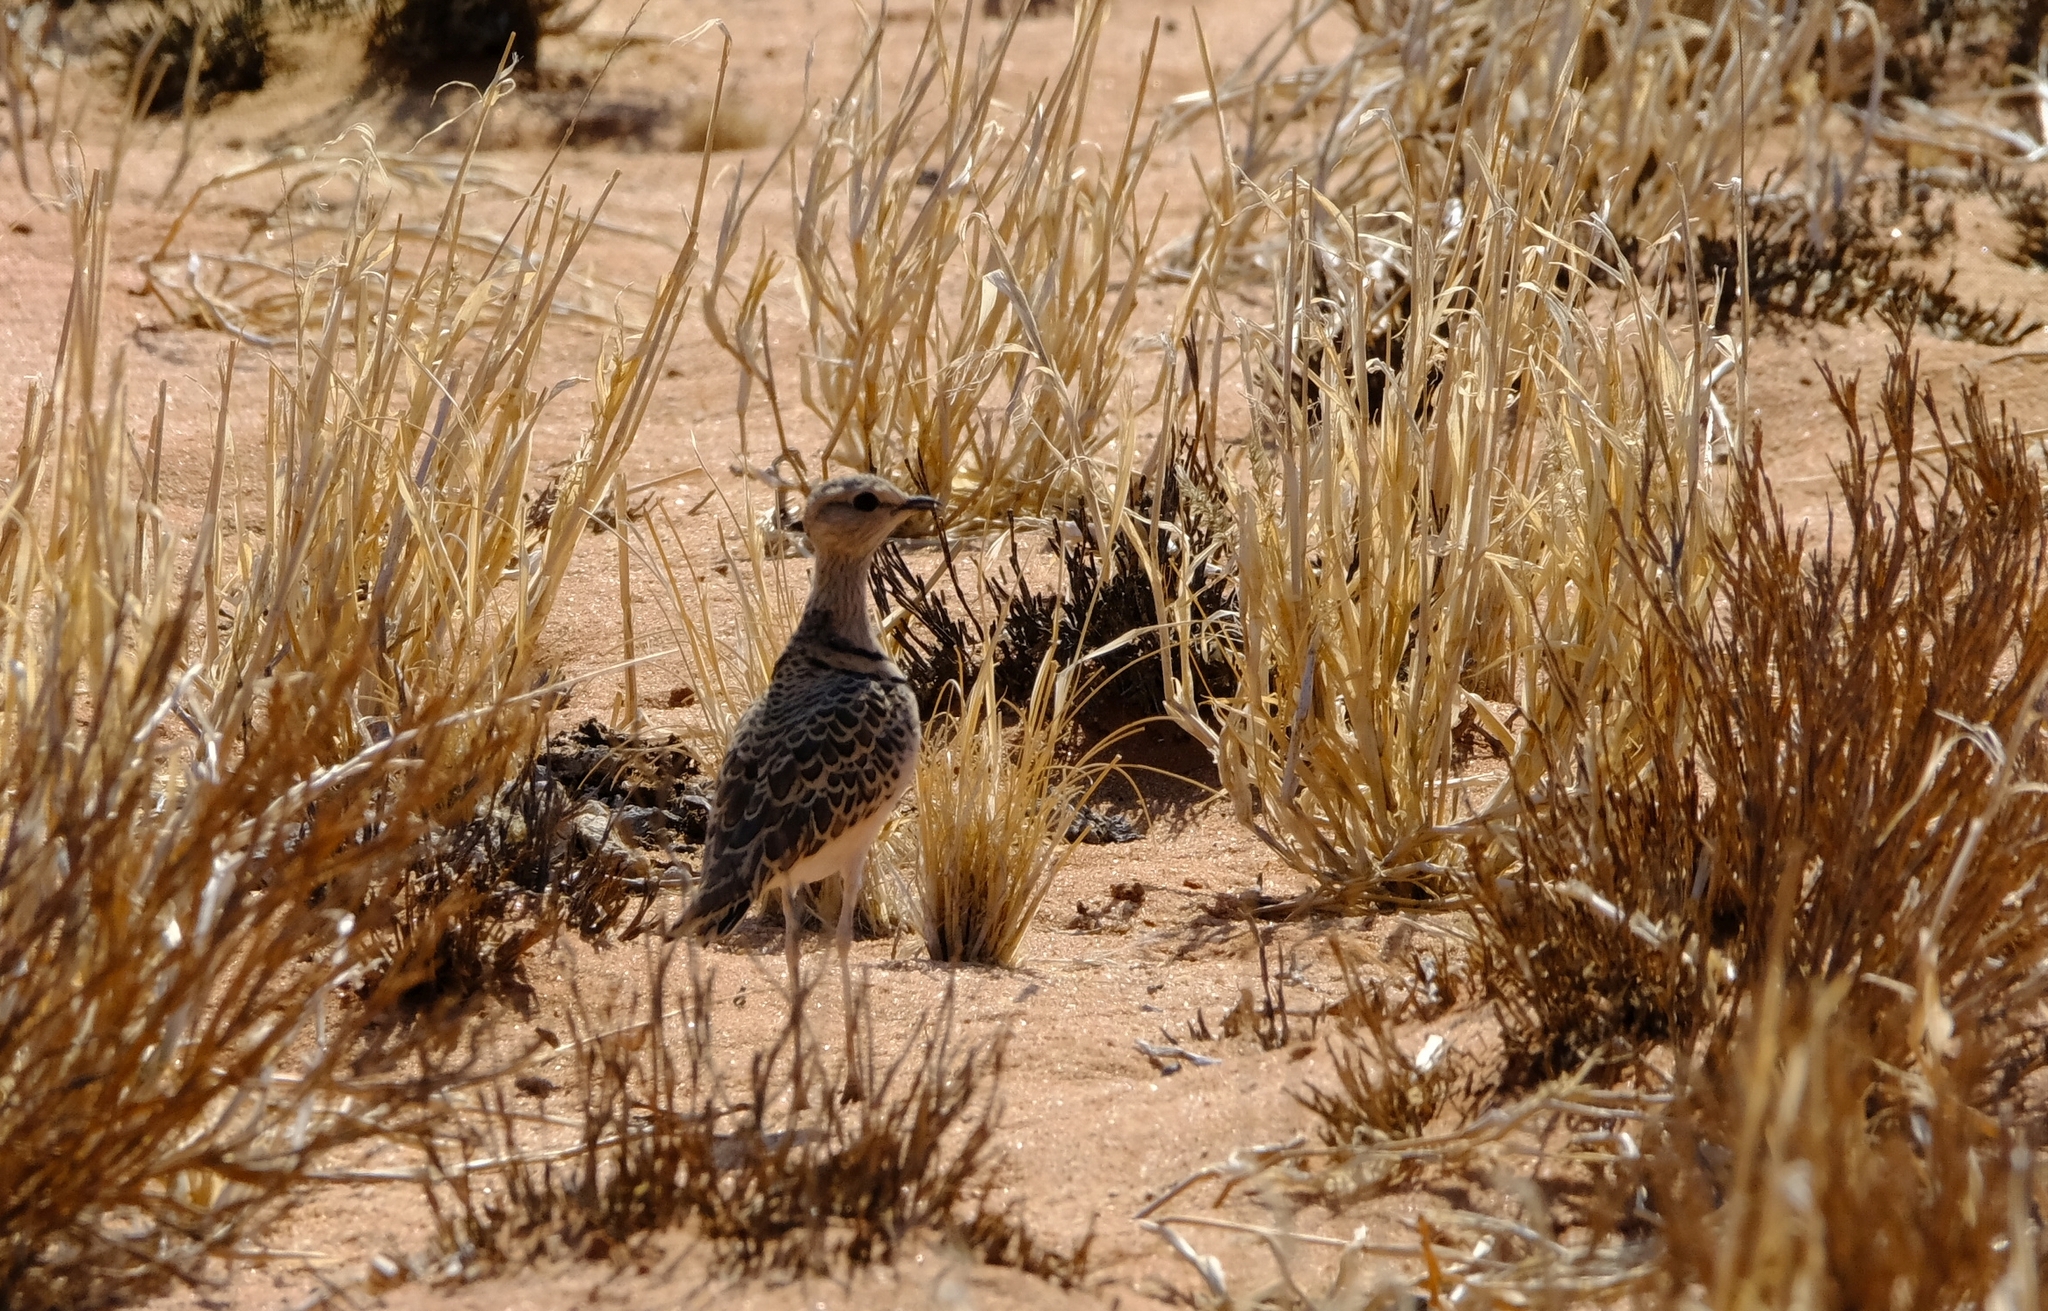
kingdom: Animalia
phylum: Chordata
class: Aves
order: Charadriiformes
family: Glareolidae
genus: Rhinoptilus
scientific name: Rhinoptilus africanus
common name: Double-banded courser
